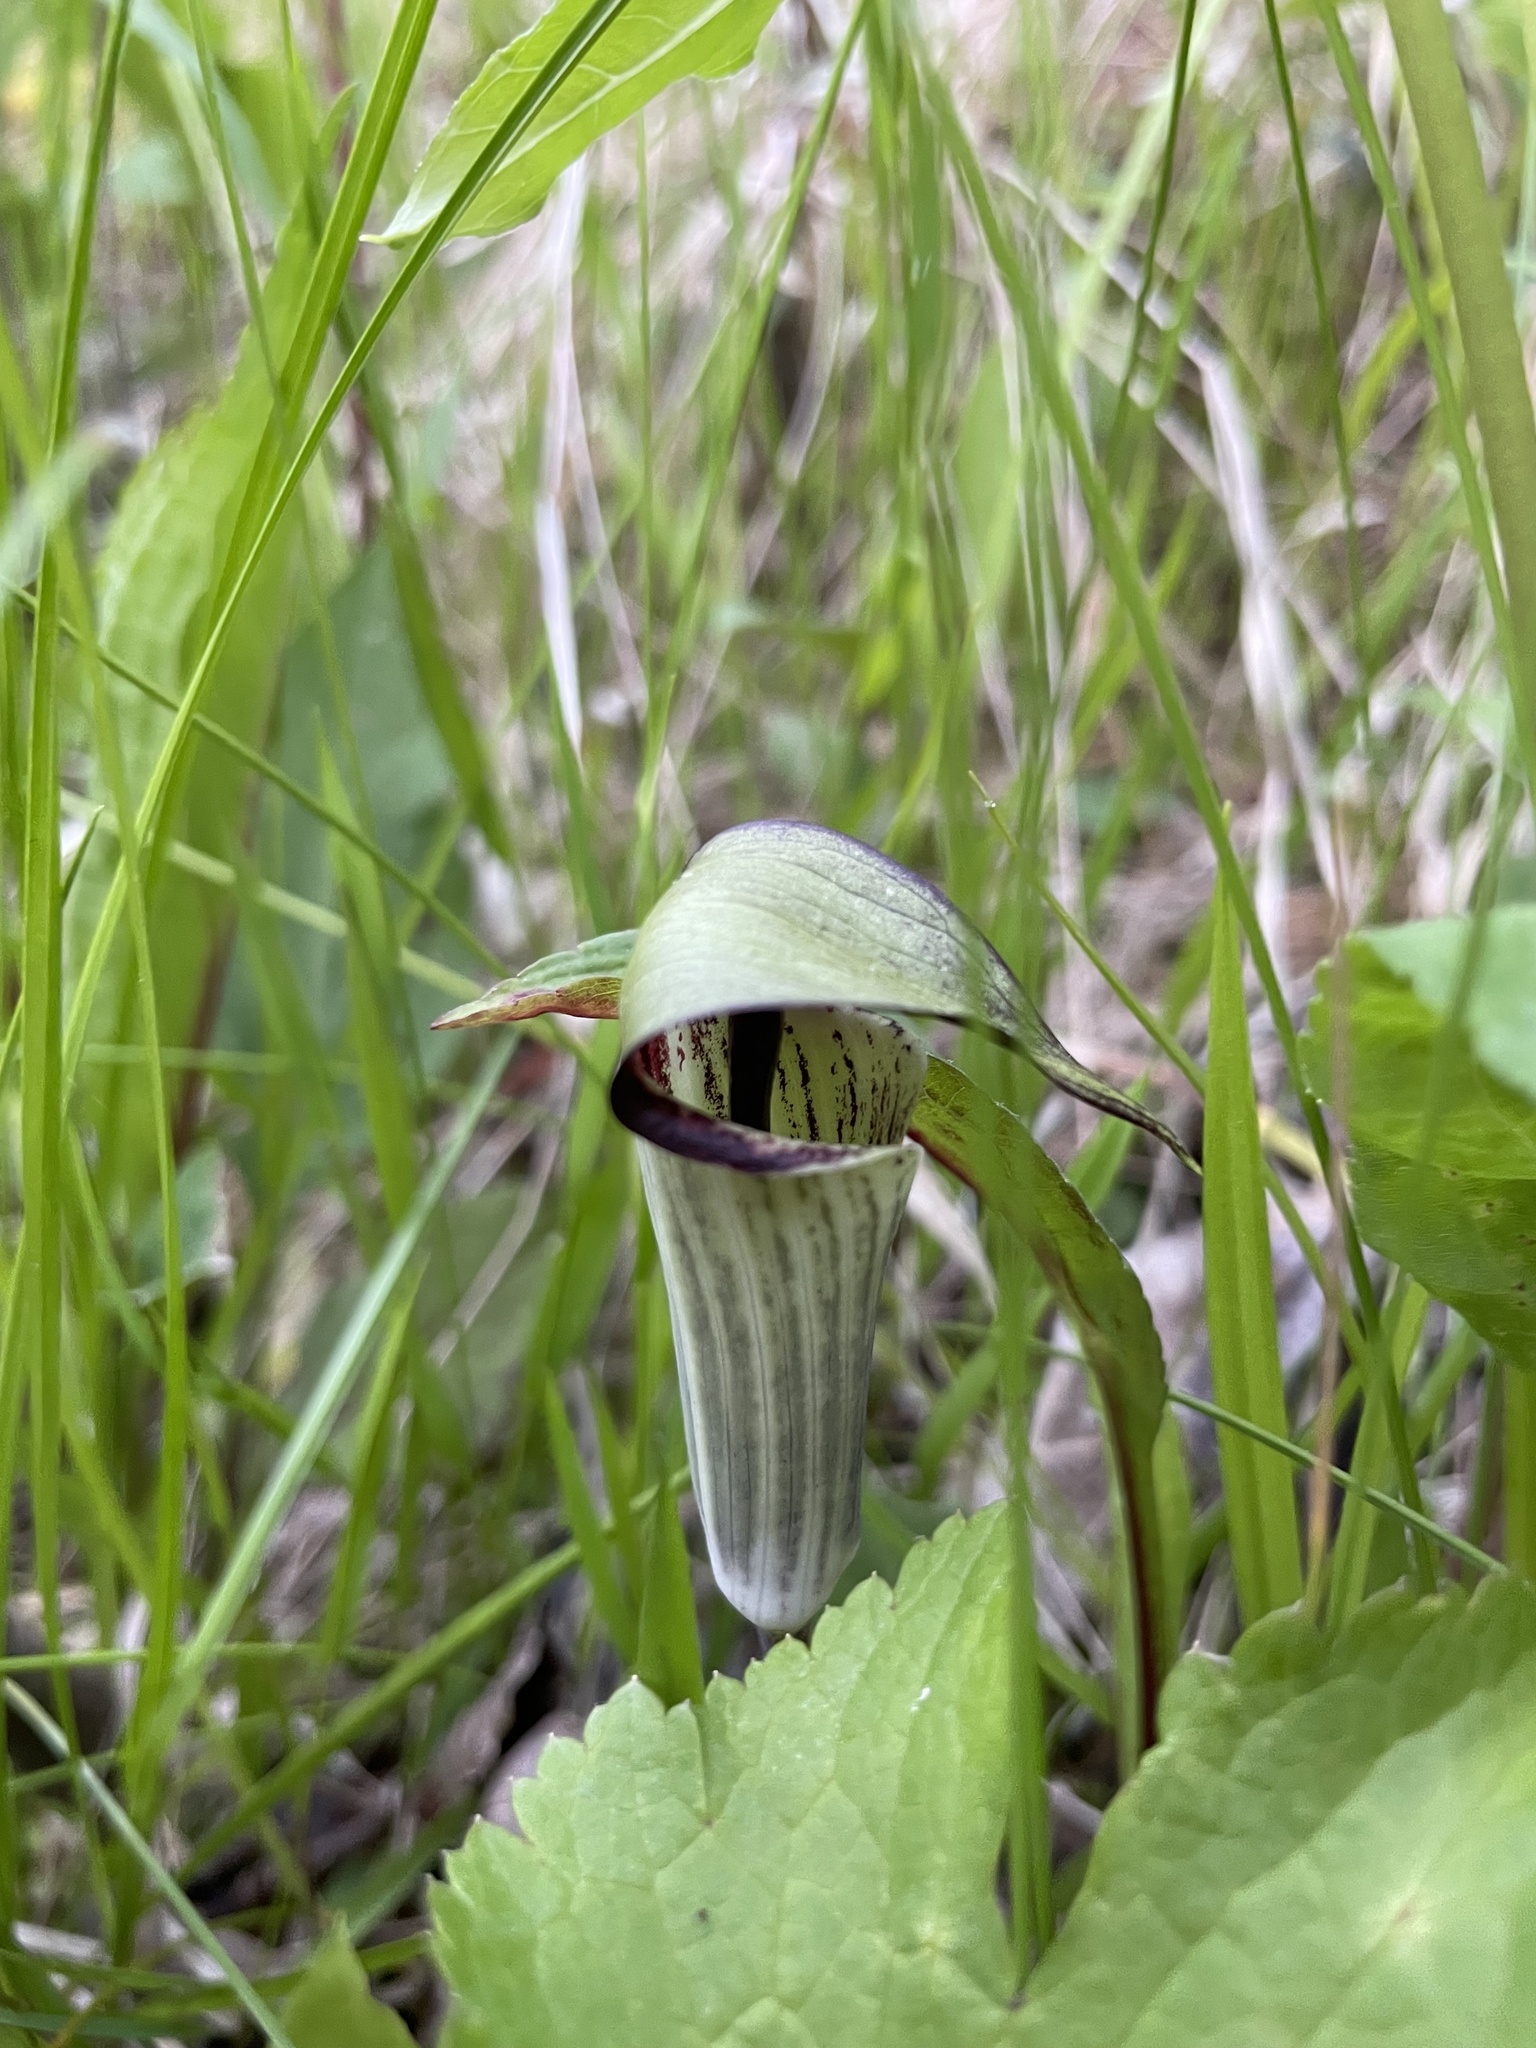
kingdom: Plantae
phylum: Tracheophyta
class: Liliopsida
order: Alismatales
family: Araceae
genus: Arisaema
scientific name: Arisaema pusillum
